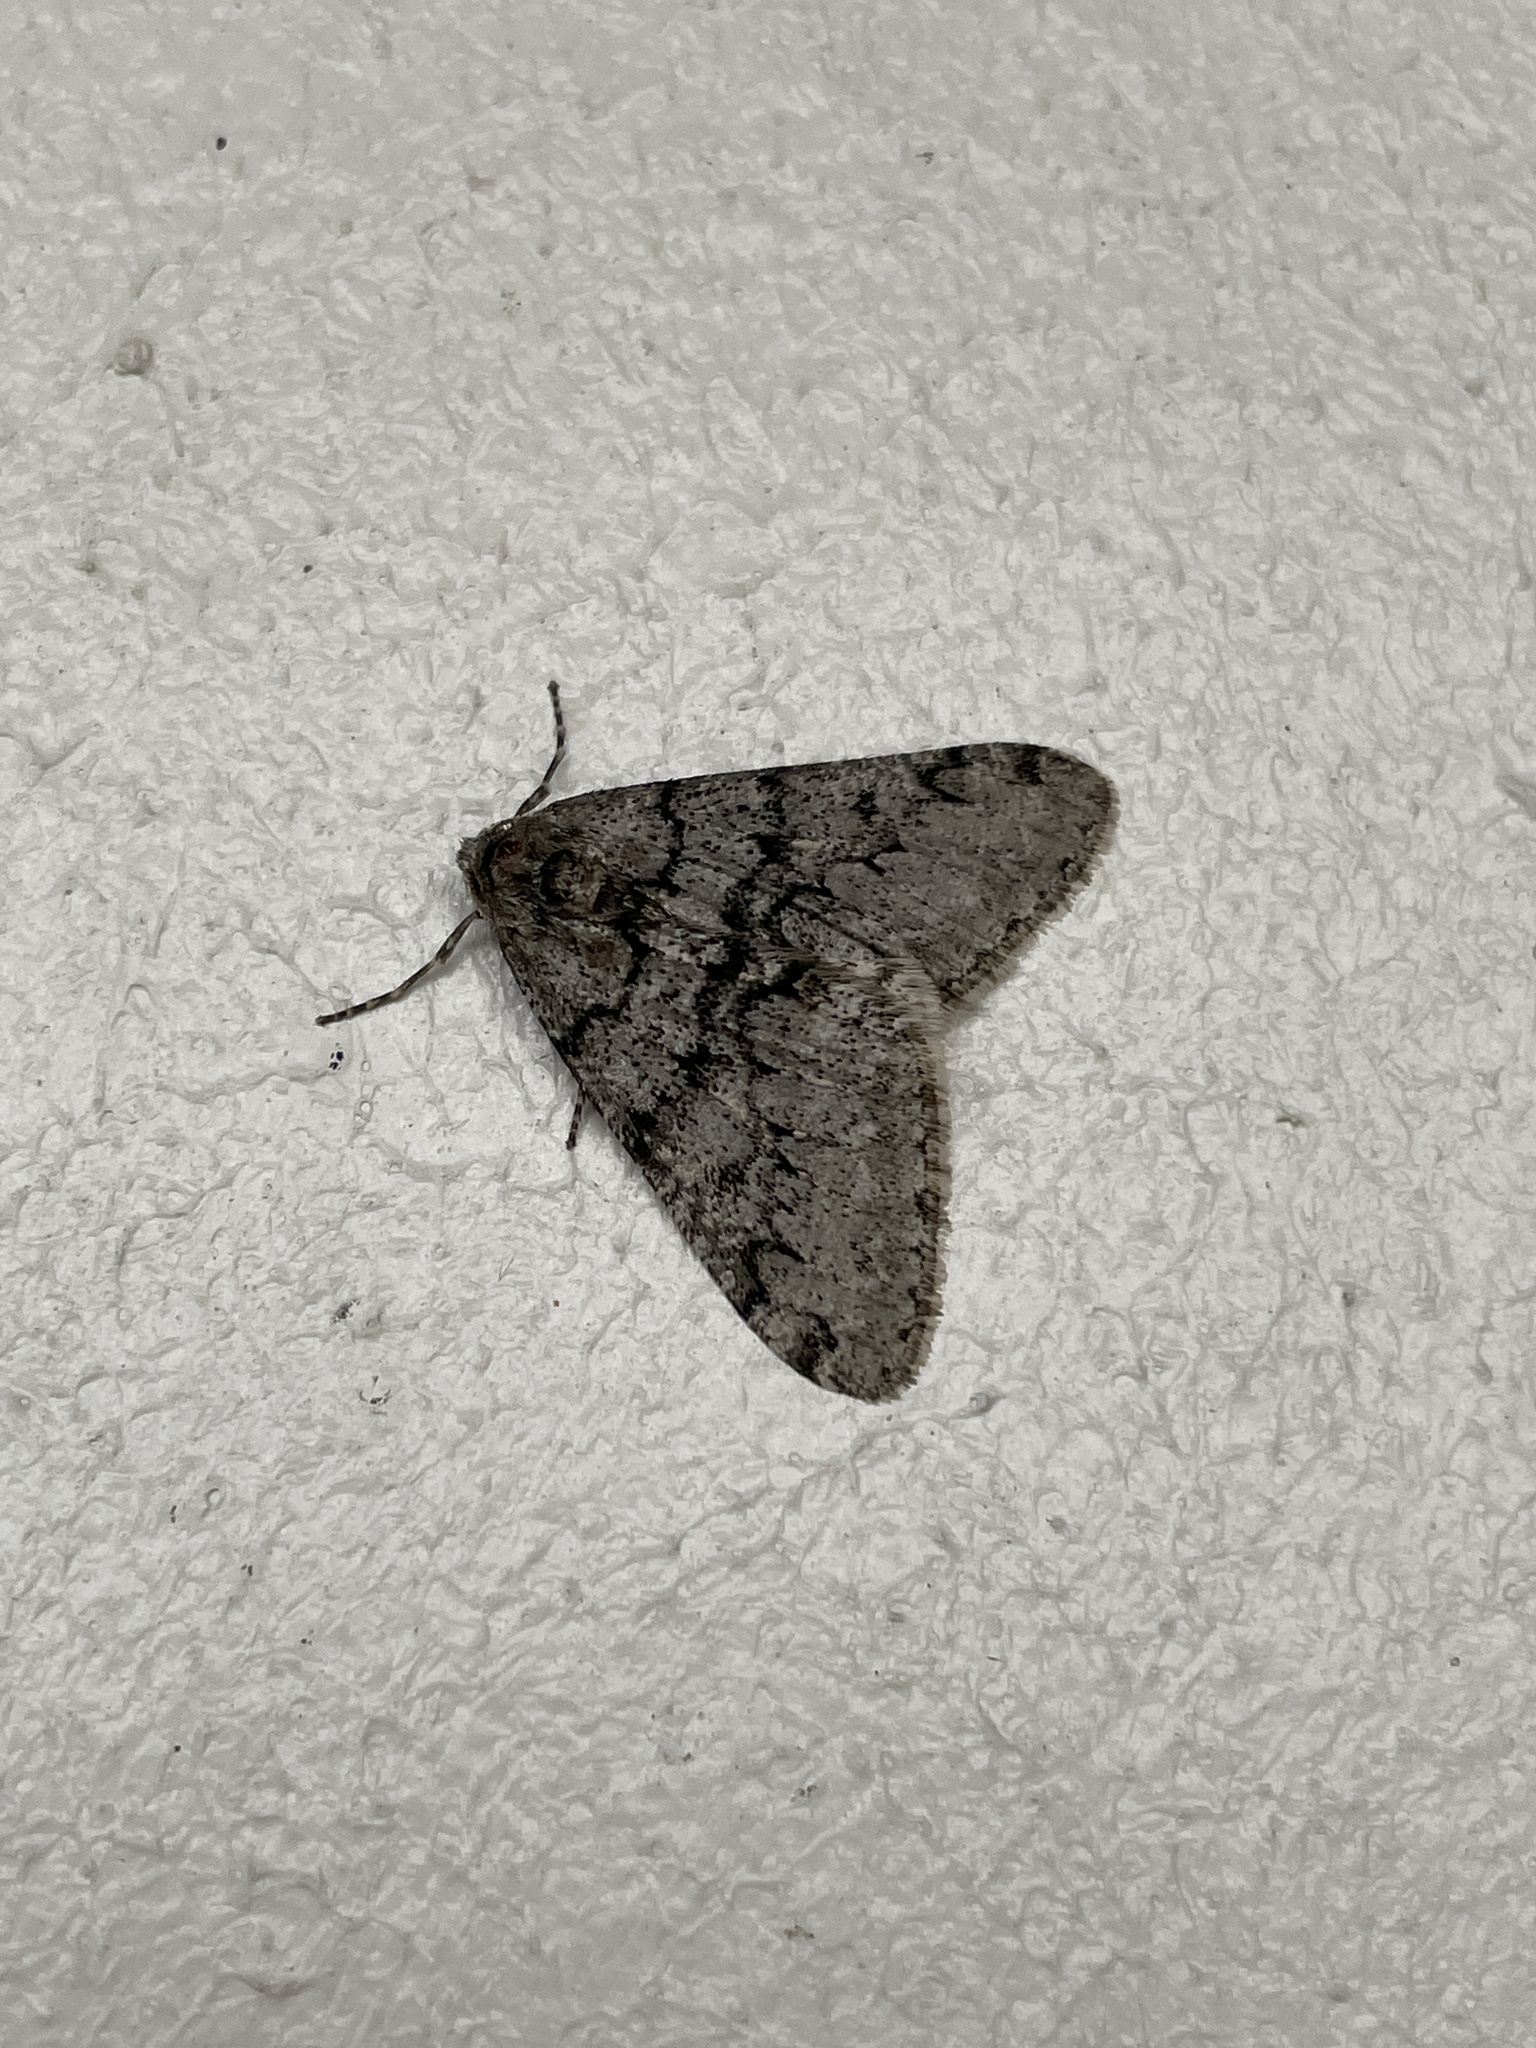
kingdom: Animalia
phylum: Arthropoda
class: Insecta
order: Lepidoptera
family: Geometridae
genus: Phigalia
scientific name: Phigalia denticulata
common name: Toothed phigalia
